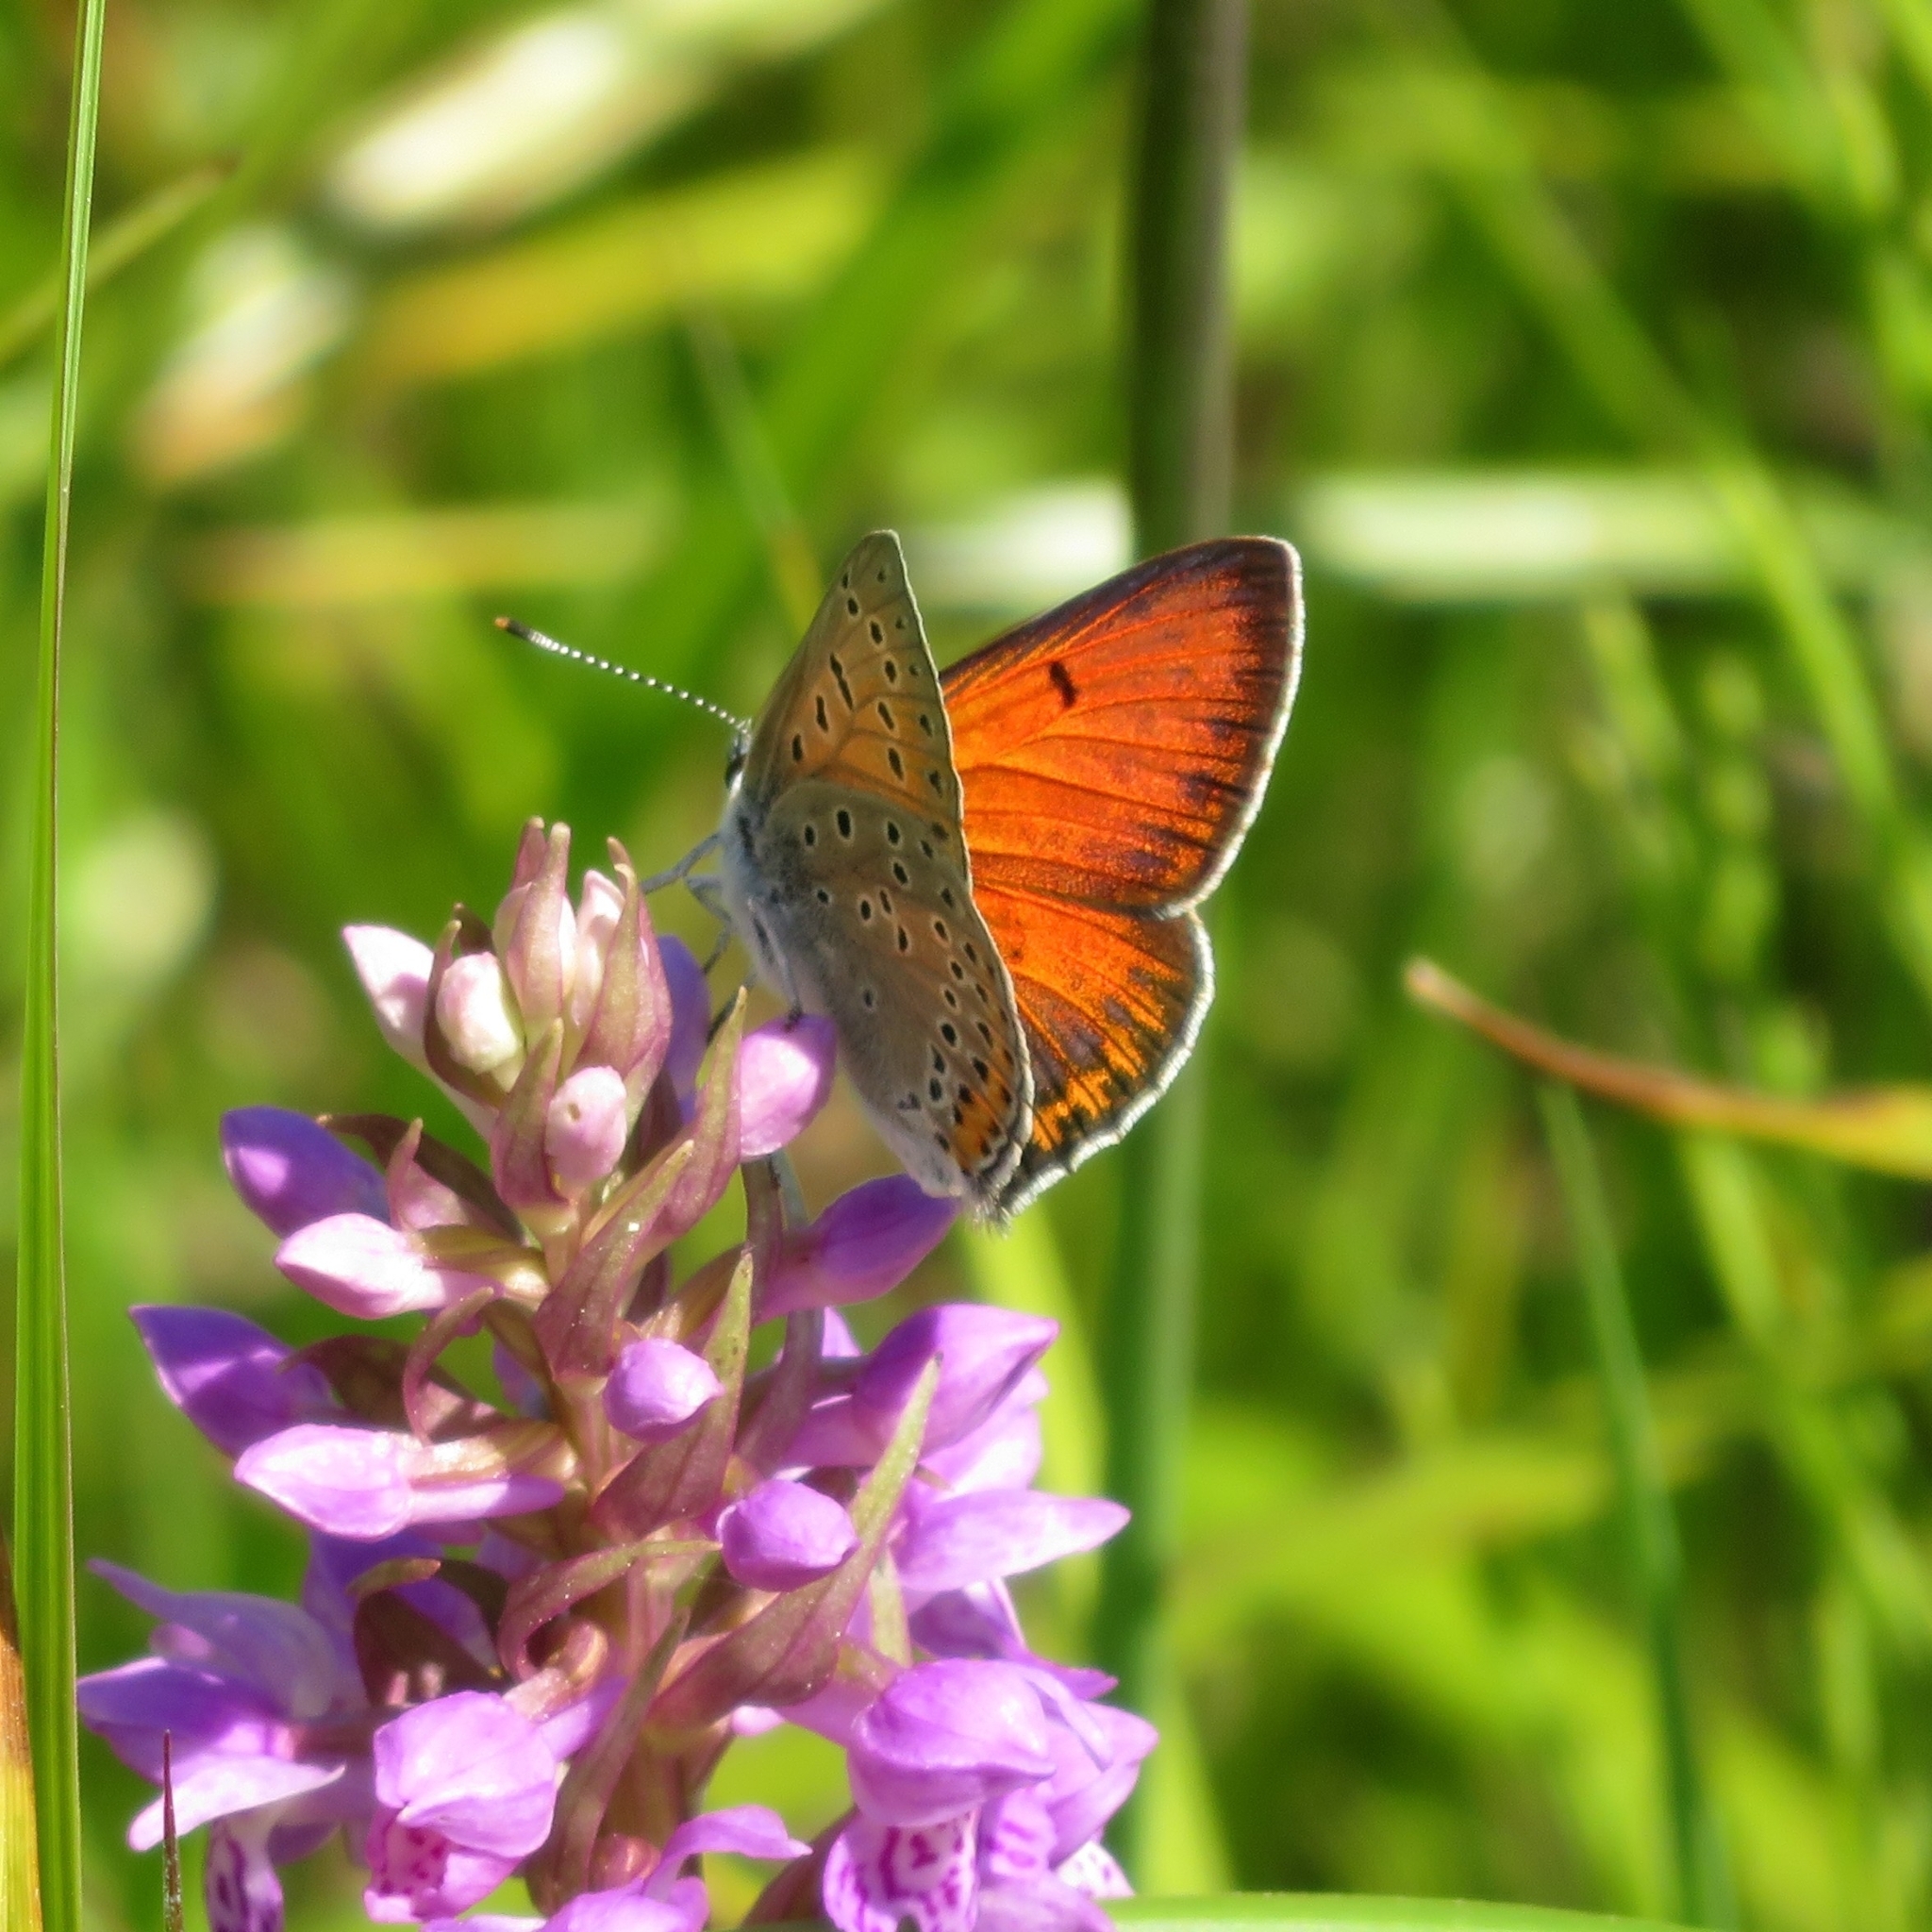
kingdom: Animalia
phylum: Arthropoda
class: Insecta
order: Lepidoptera
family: Lycaenidae
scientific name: Lycaenidae
